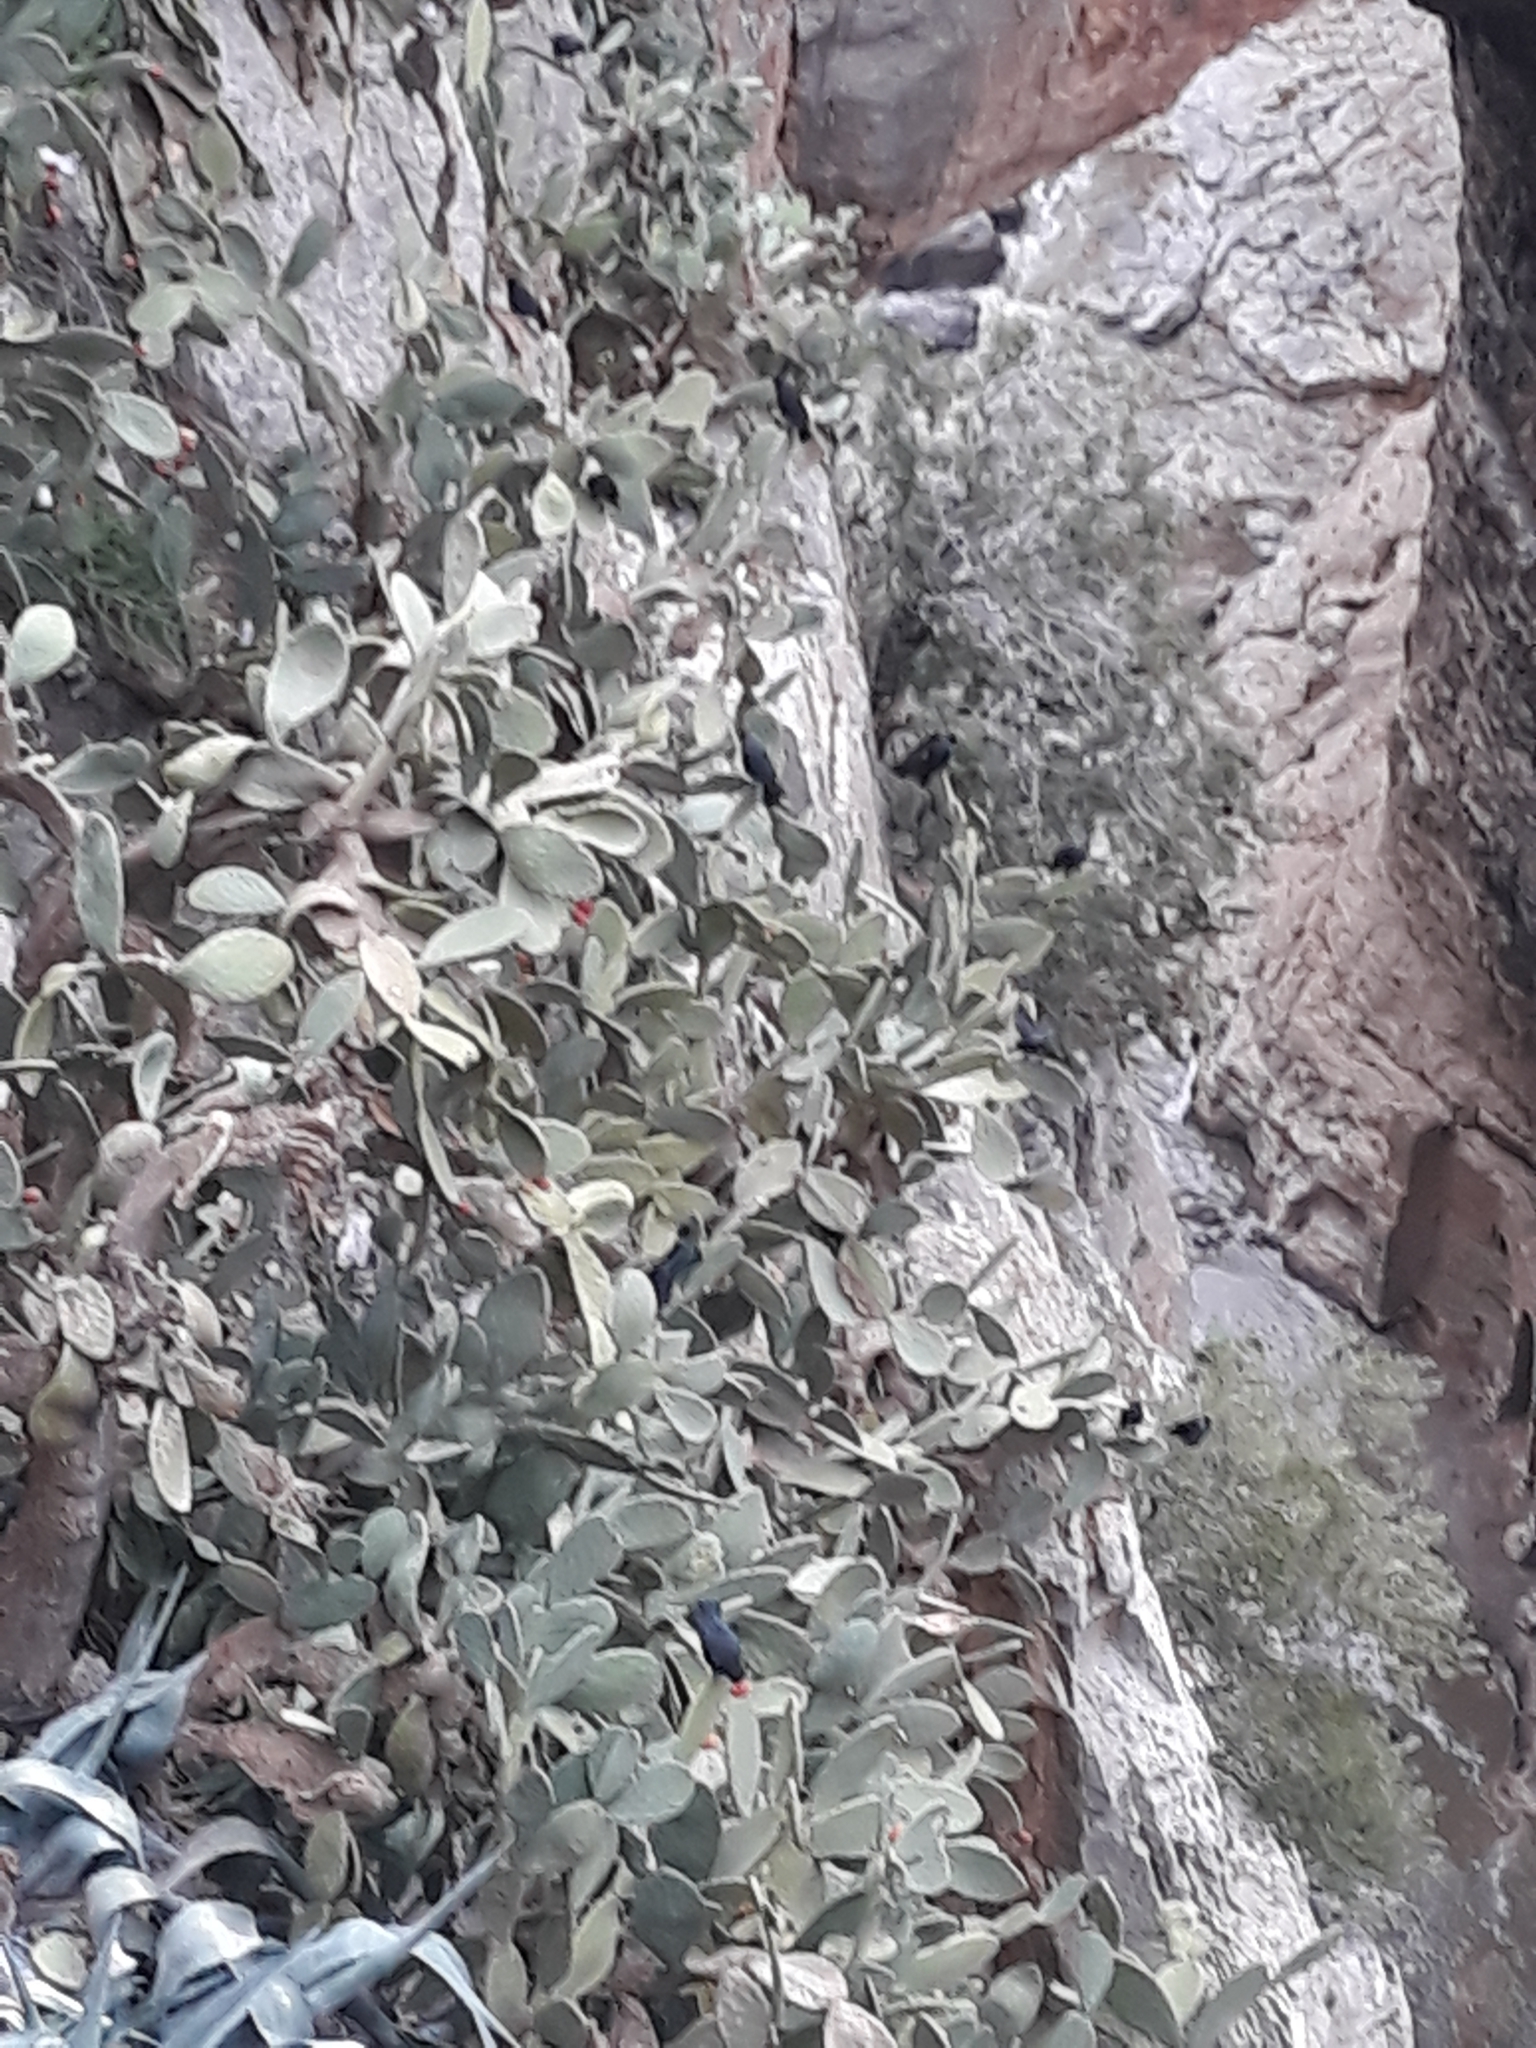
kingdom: Plantae
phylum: Tracheophyta
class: Magnoliopsida
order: Caryophyllales
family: Cactaceae
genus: Opuntia
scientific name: Opuntia ficus-indica
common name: Barbary fig
